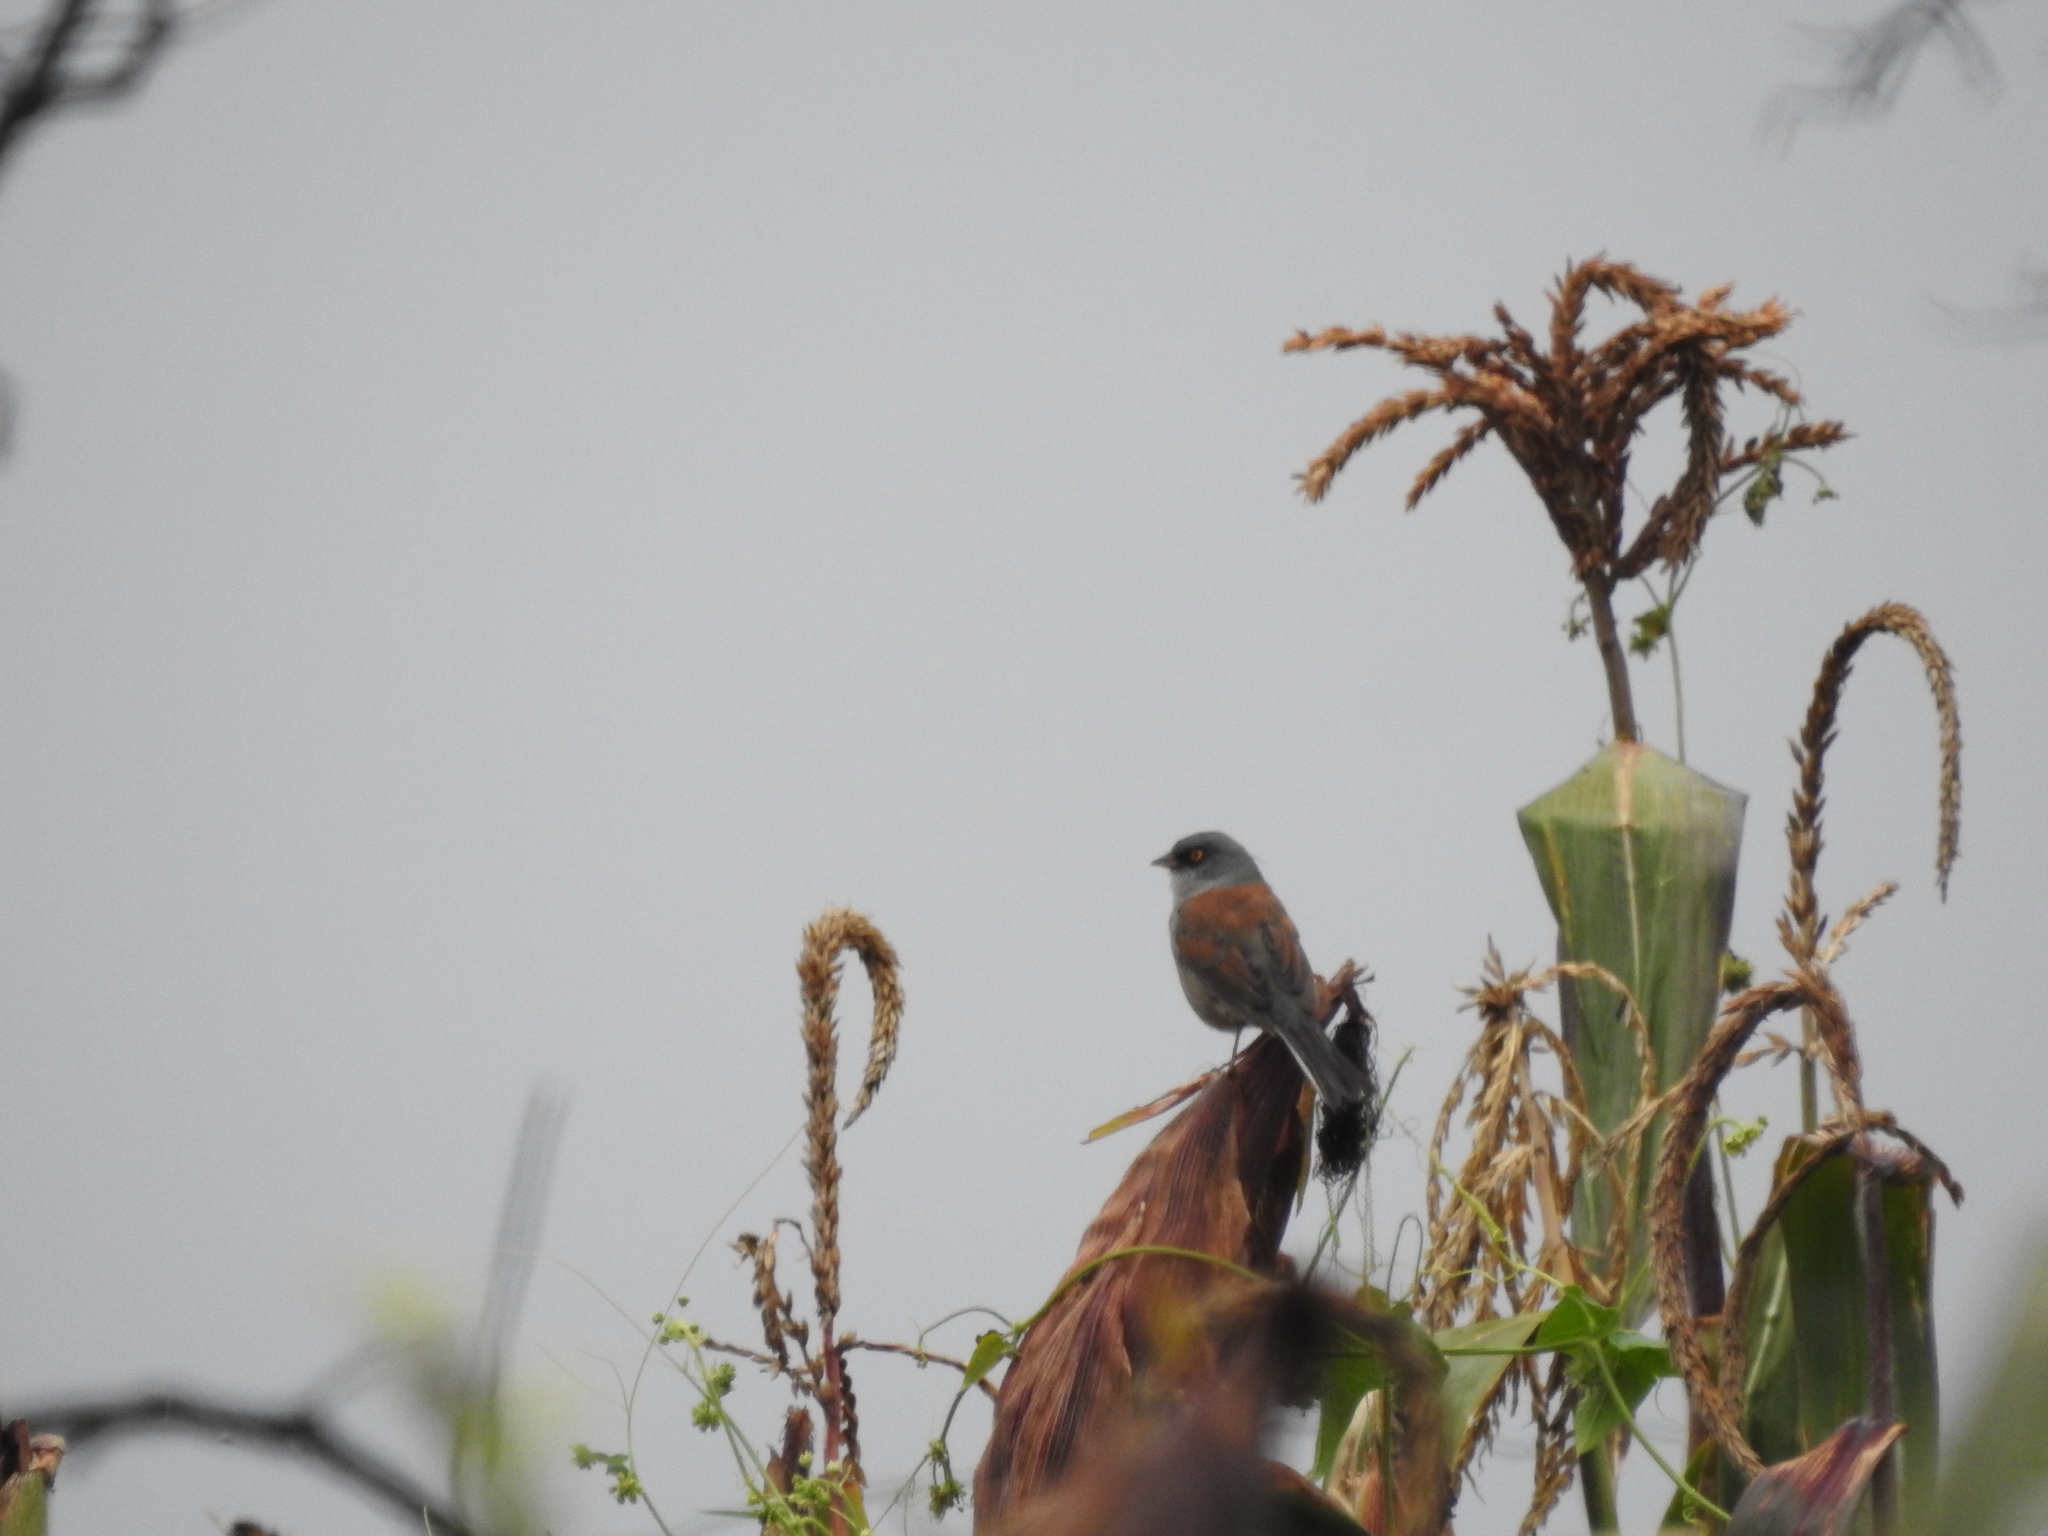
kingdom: Animalia
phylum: Chordata
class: Aves
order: Passeriformes
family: Passerellidae
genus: Junco
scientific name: Junco phaeonotus
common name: Yellow-eyed junco
